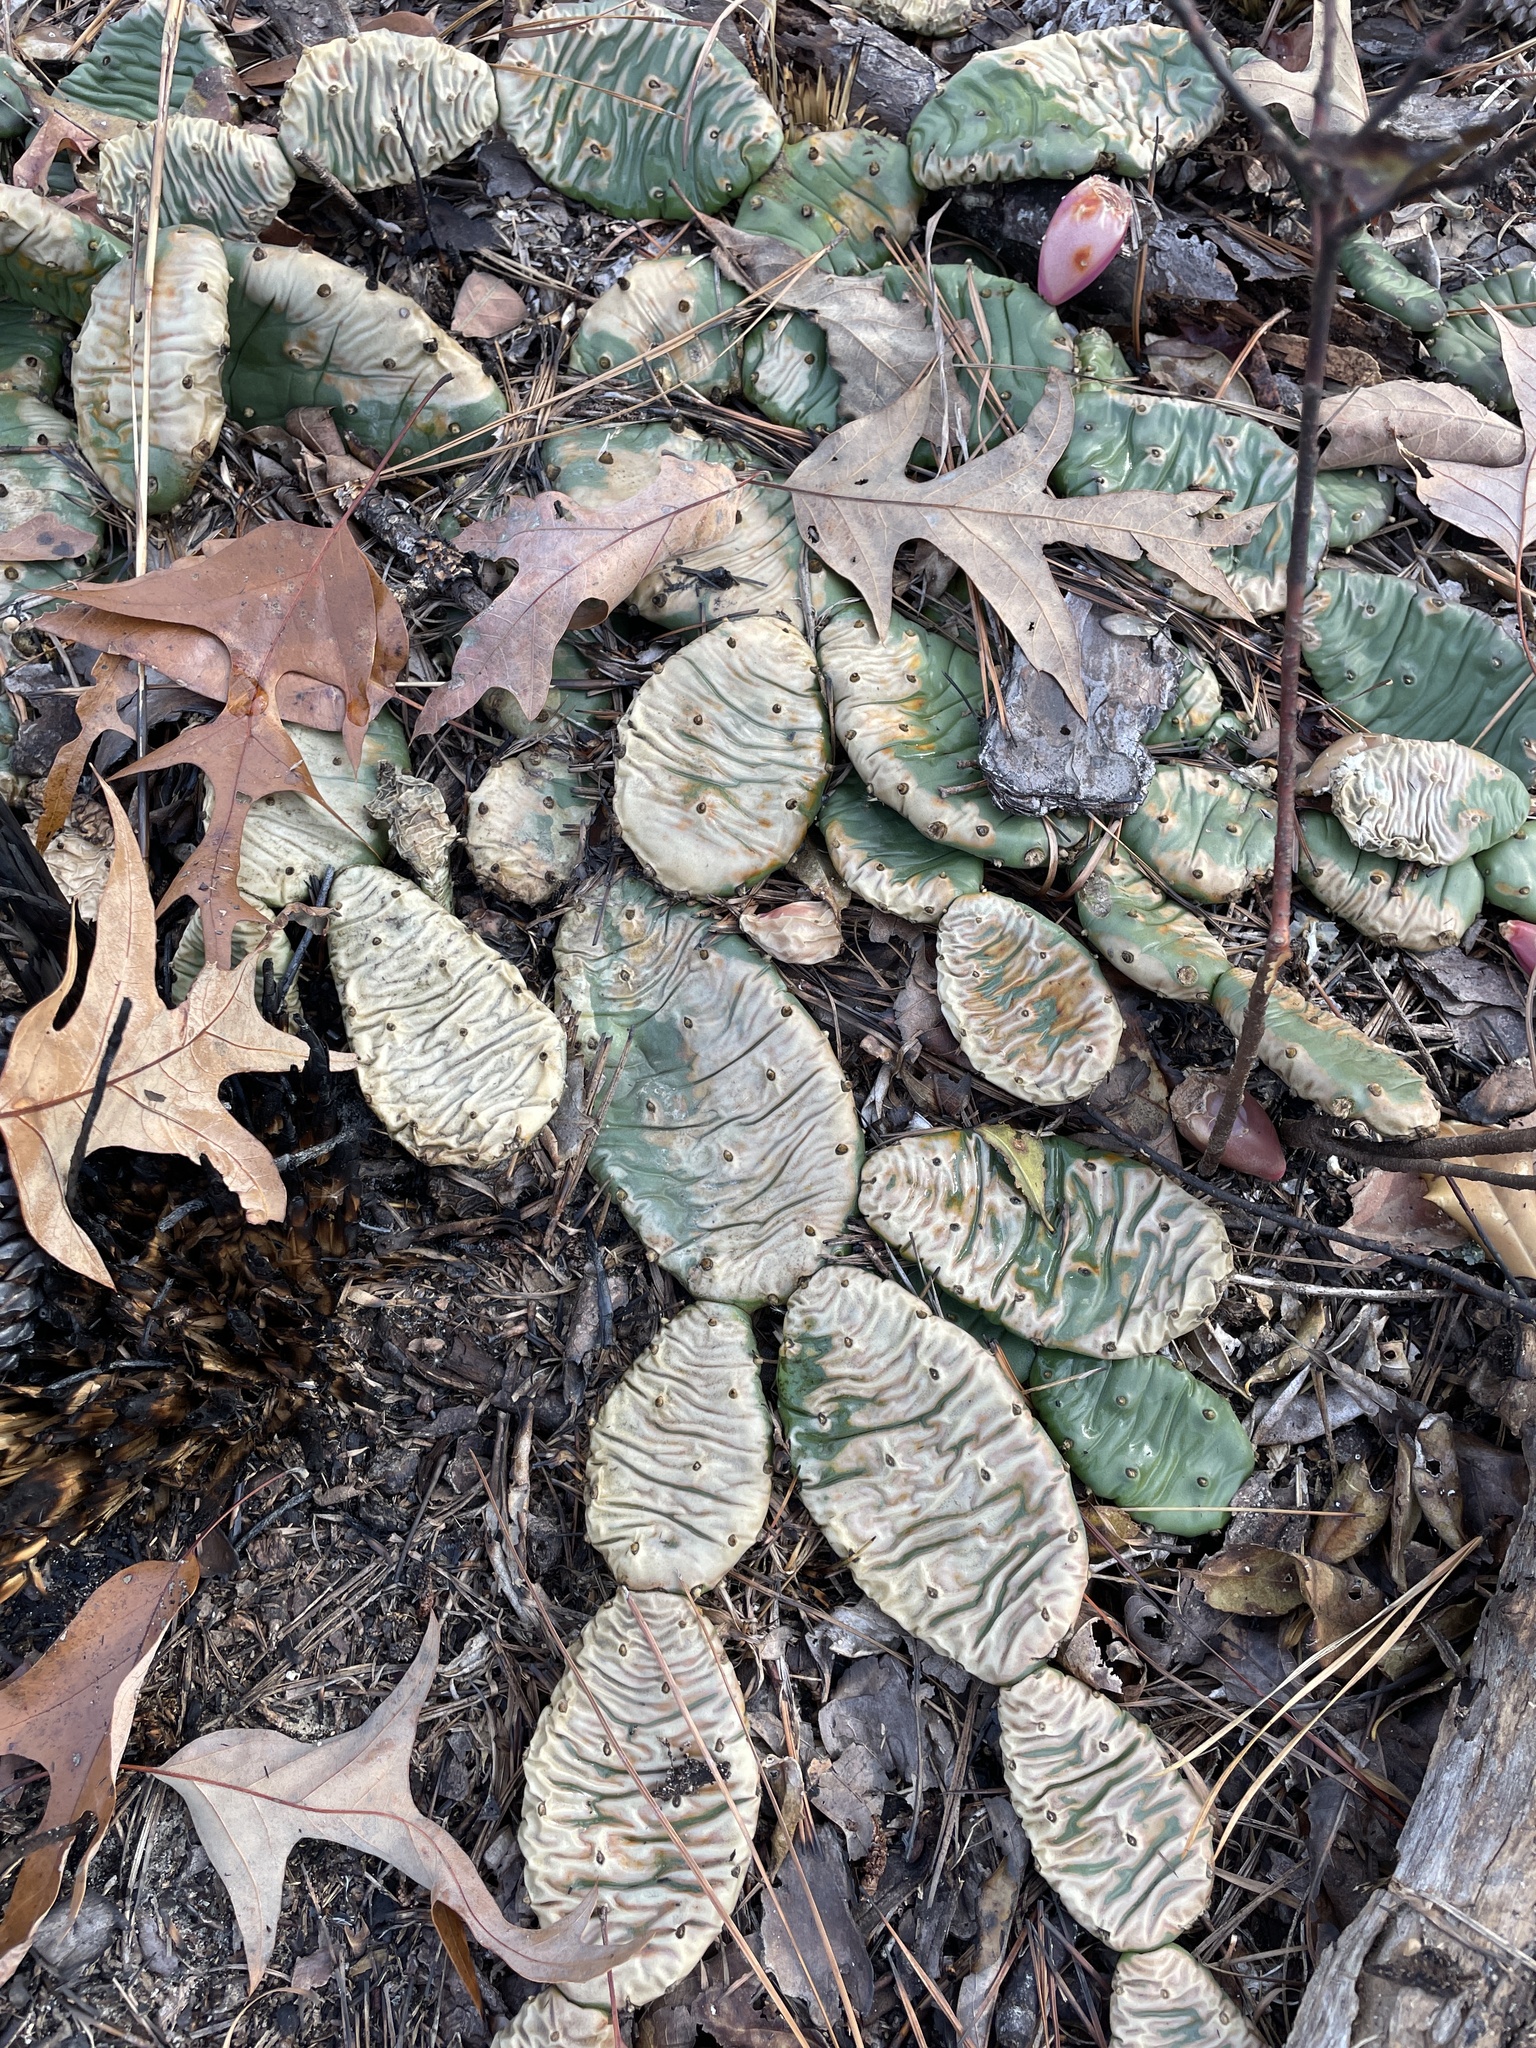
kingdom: Plantae
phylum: Tracheophyta
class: Magnoliopsida
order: Caryophyllales
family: Cactaceae
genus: Opuntia
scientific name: Opuntia humifusa
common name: Eastern prickly-pear
